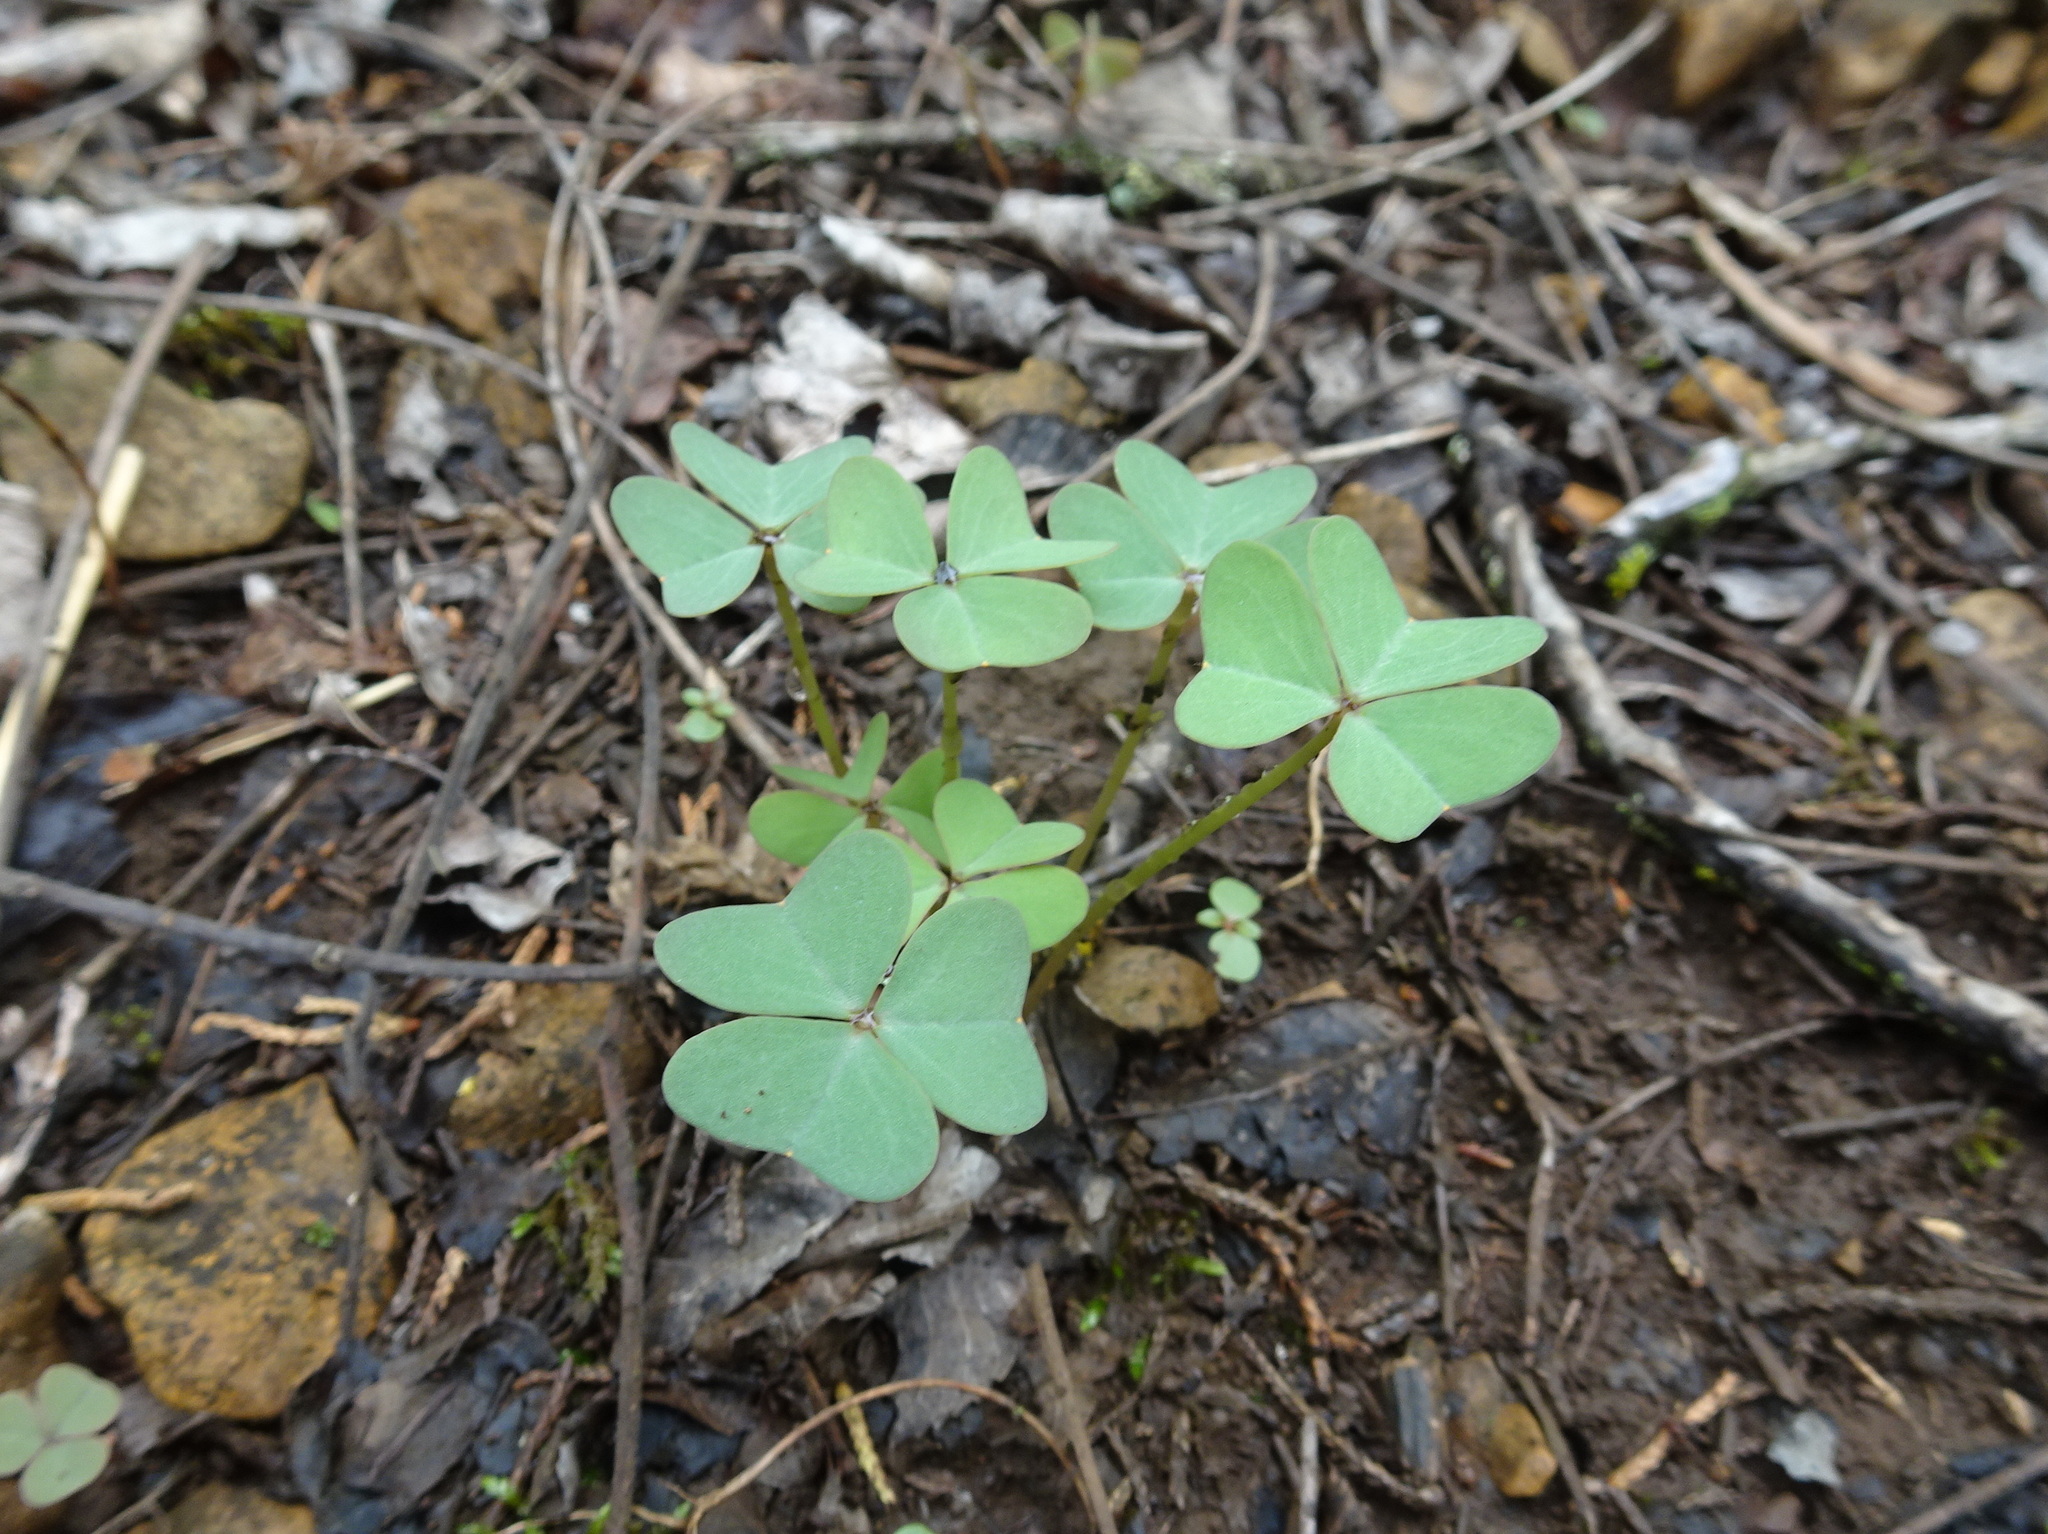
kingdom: Plantae
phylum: Tracheophyta
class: Magnoliopsida
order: Oxalidales
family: Oxalidaceae
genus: Oxalis
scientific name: Oxalis violacea
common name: Violet wood-sorrel
